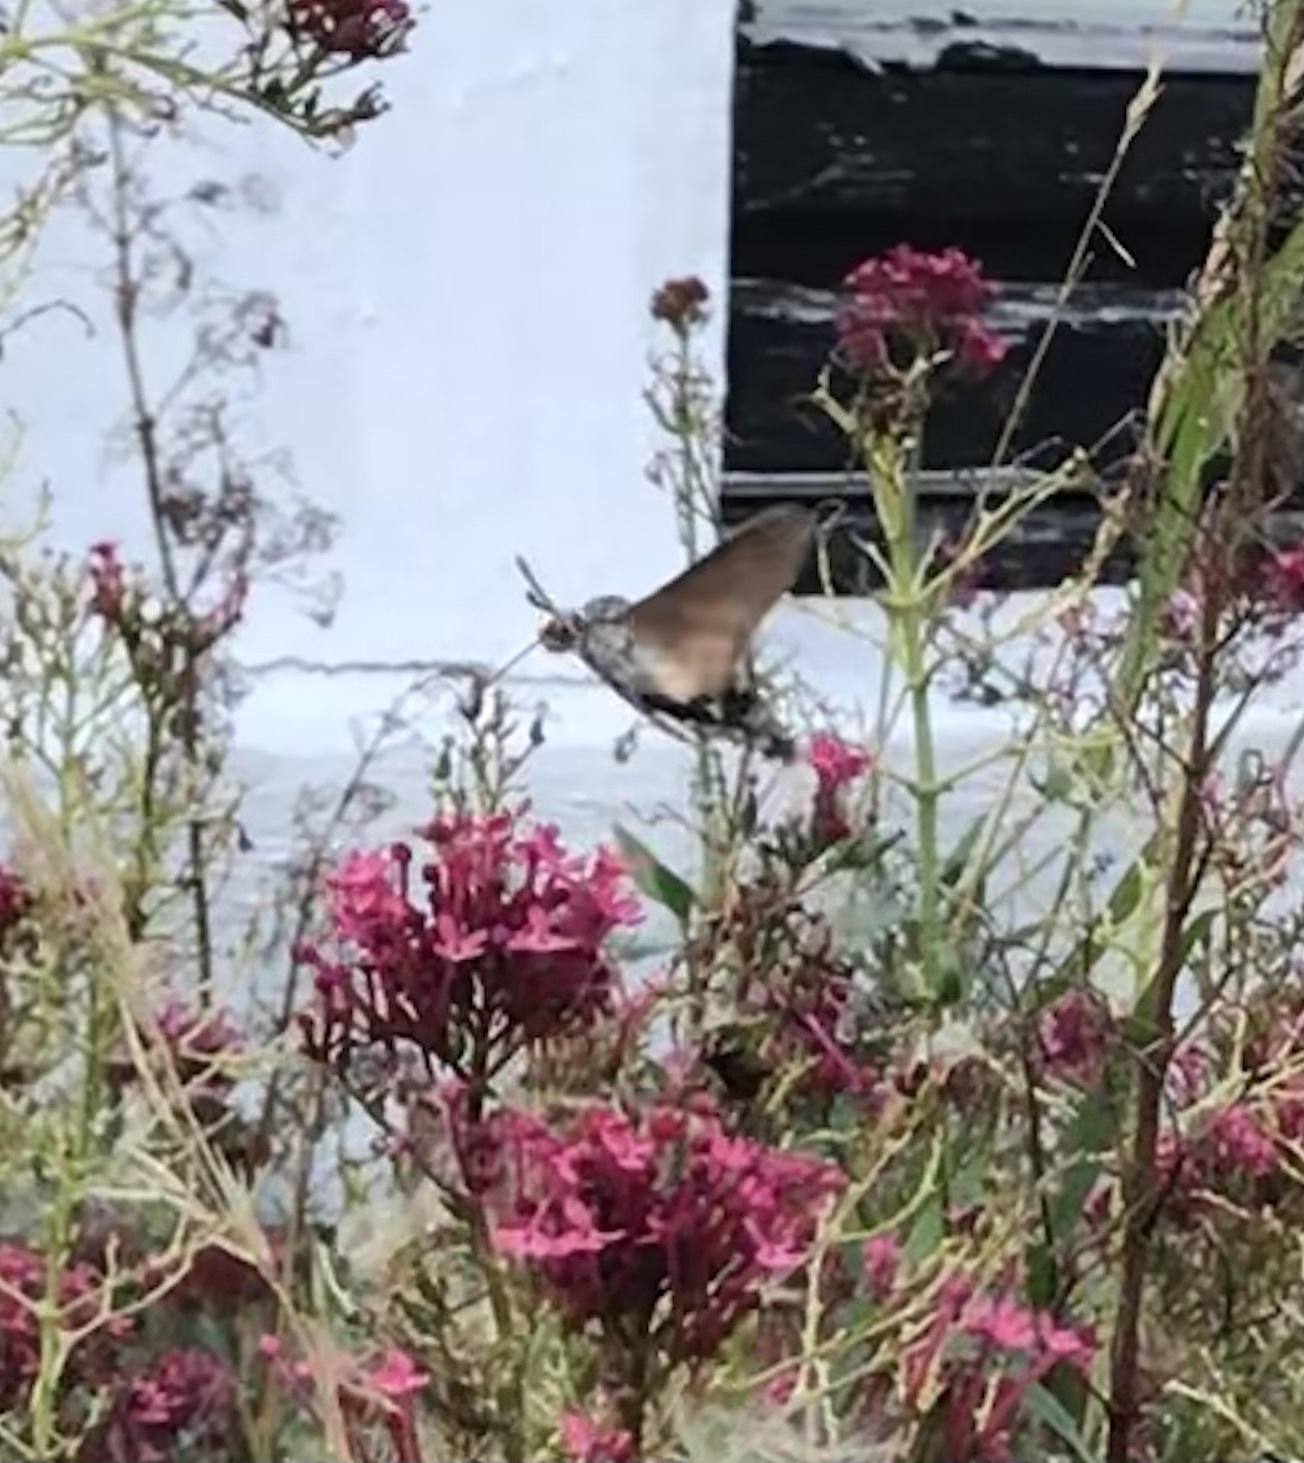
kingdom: Animalia
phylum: Arthropoda
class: Insecta
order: Lepidoptera
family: Sphingidae
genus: Macroglossum
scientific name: Macroglossum stellatarum
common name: Humming-bird hawk-moth
